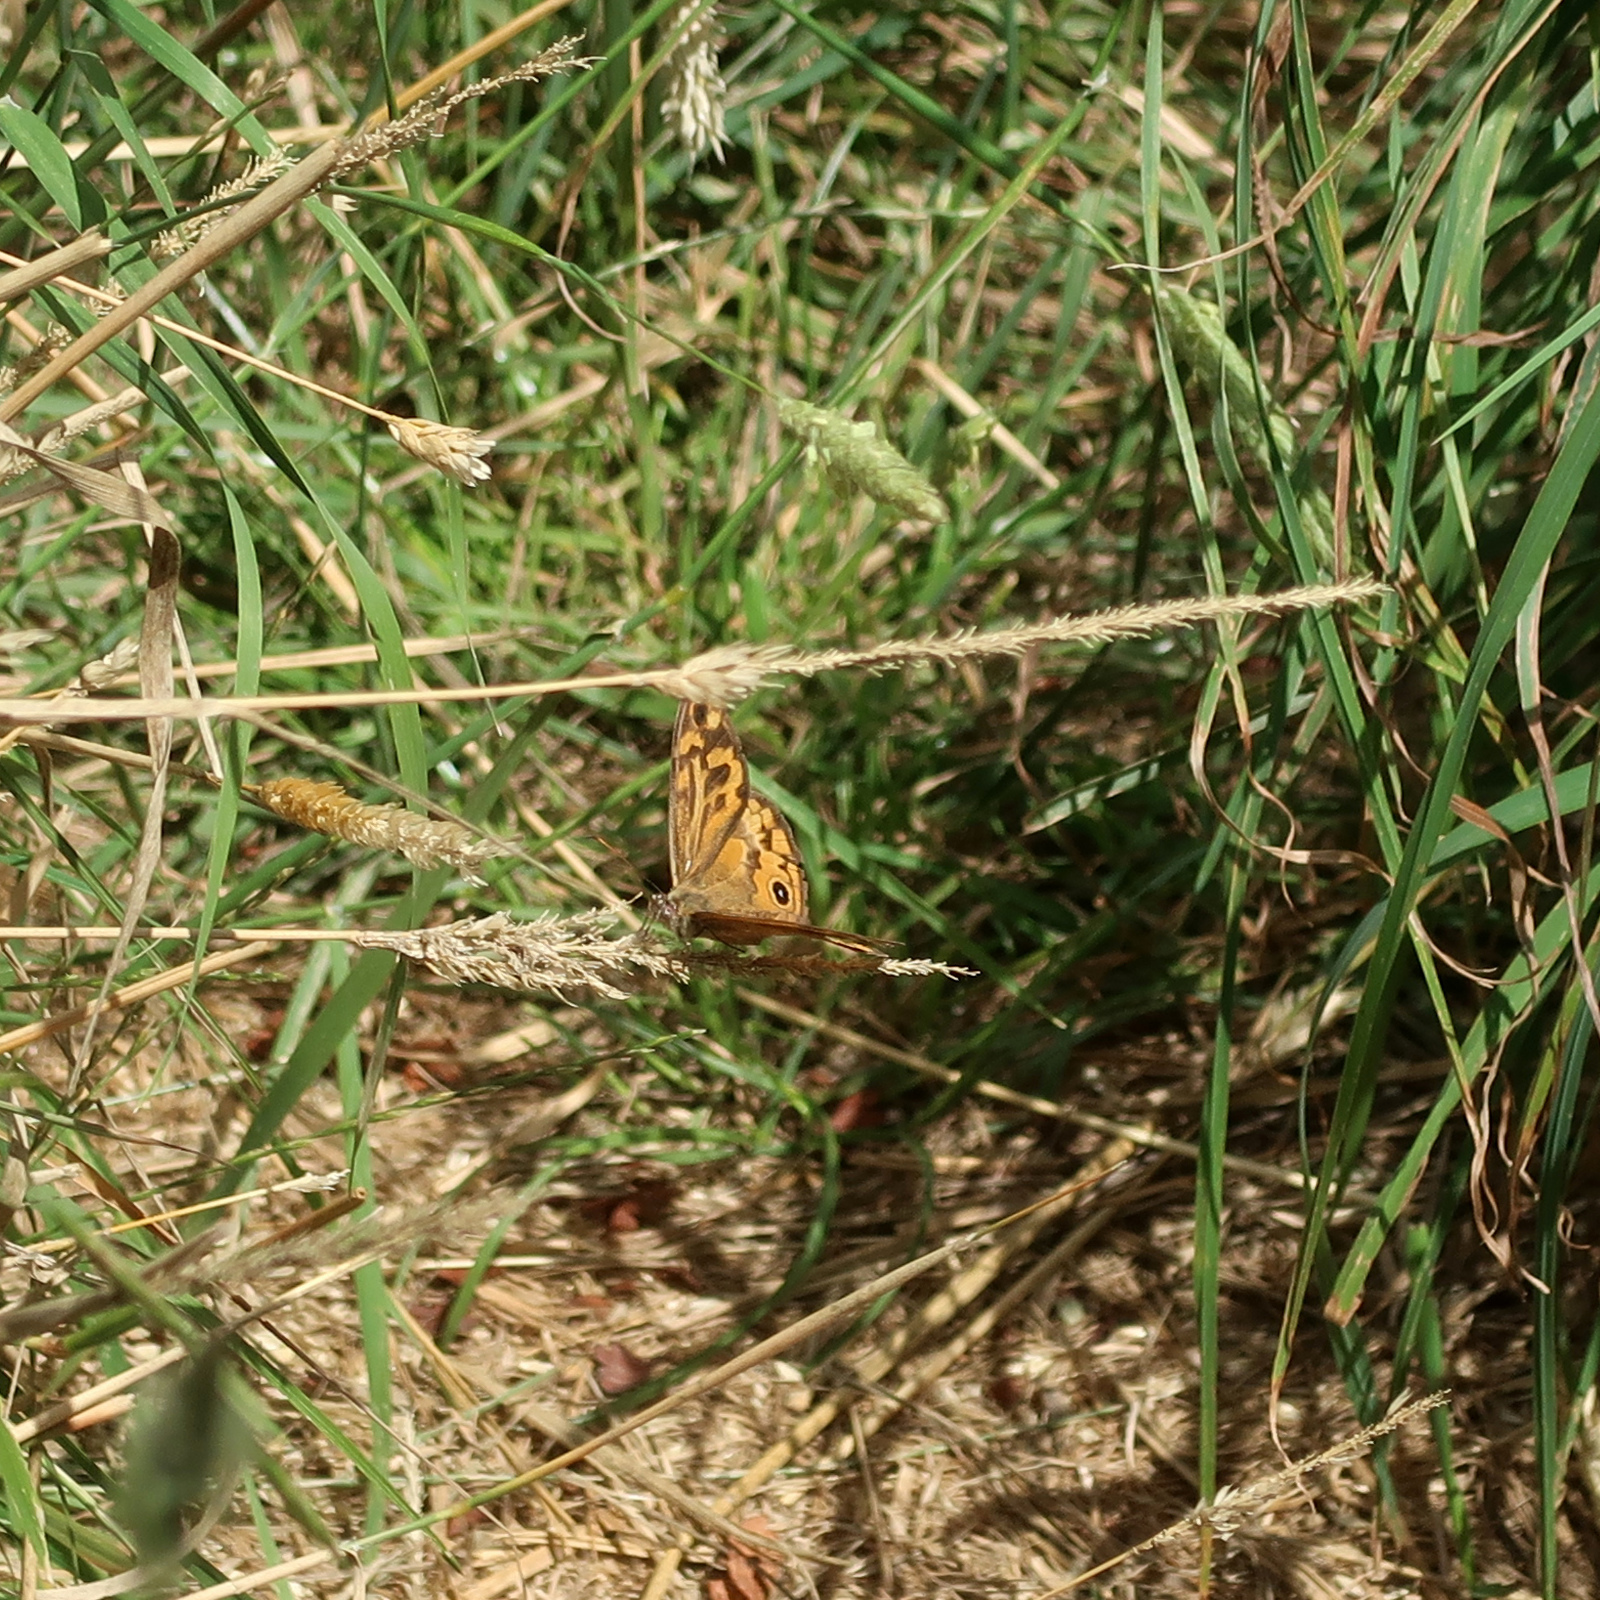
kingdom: Animalia
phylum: Arthropoda
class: Insecta
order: Lepidoptera
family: Nymphalidae
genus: Heteronympha
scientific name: Heteronympha merope
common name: Common brown
